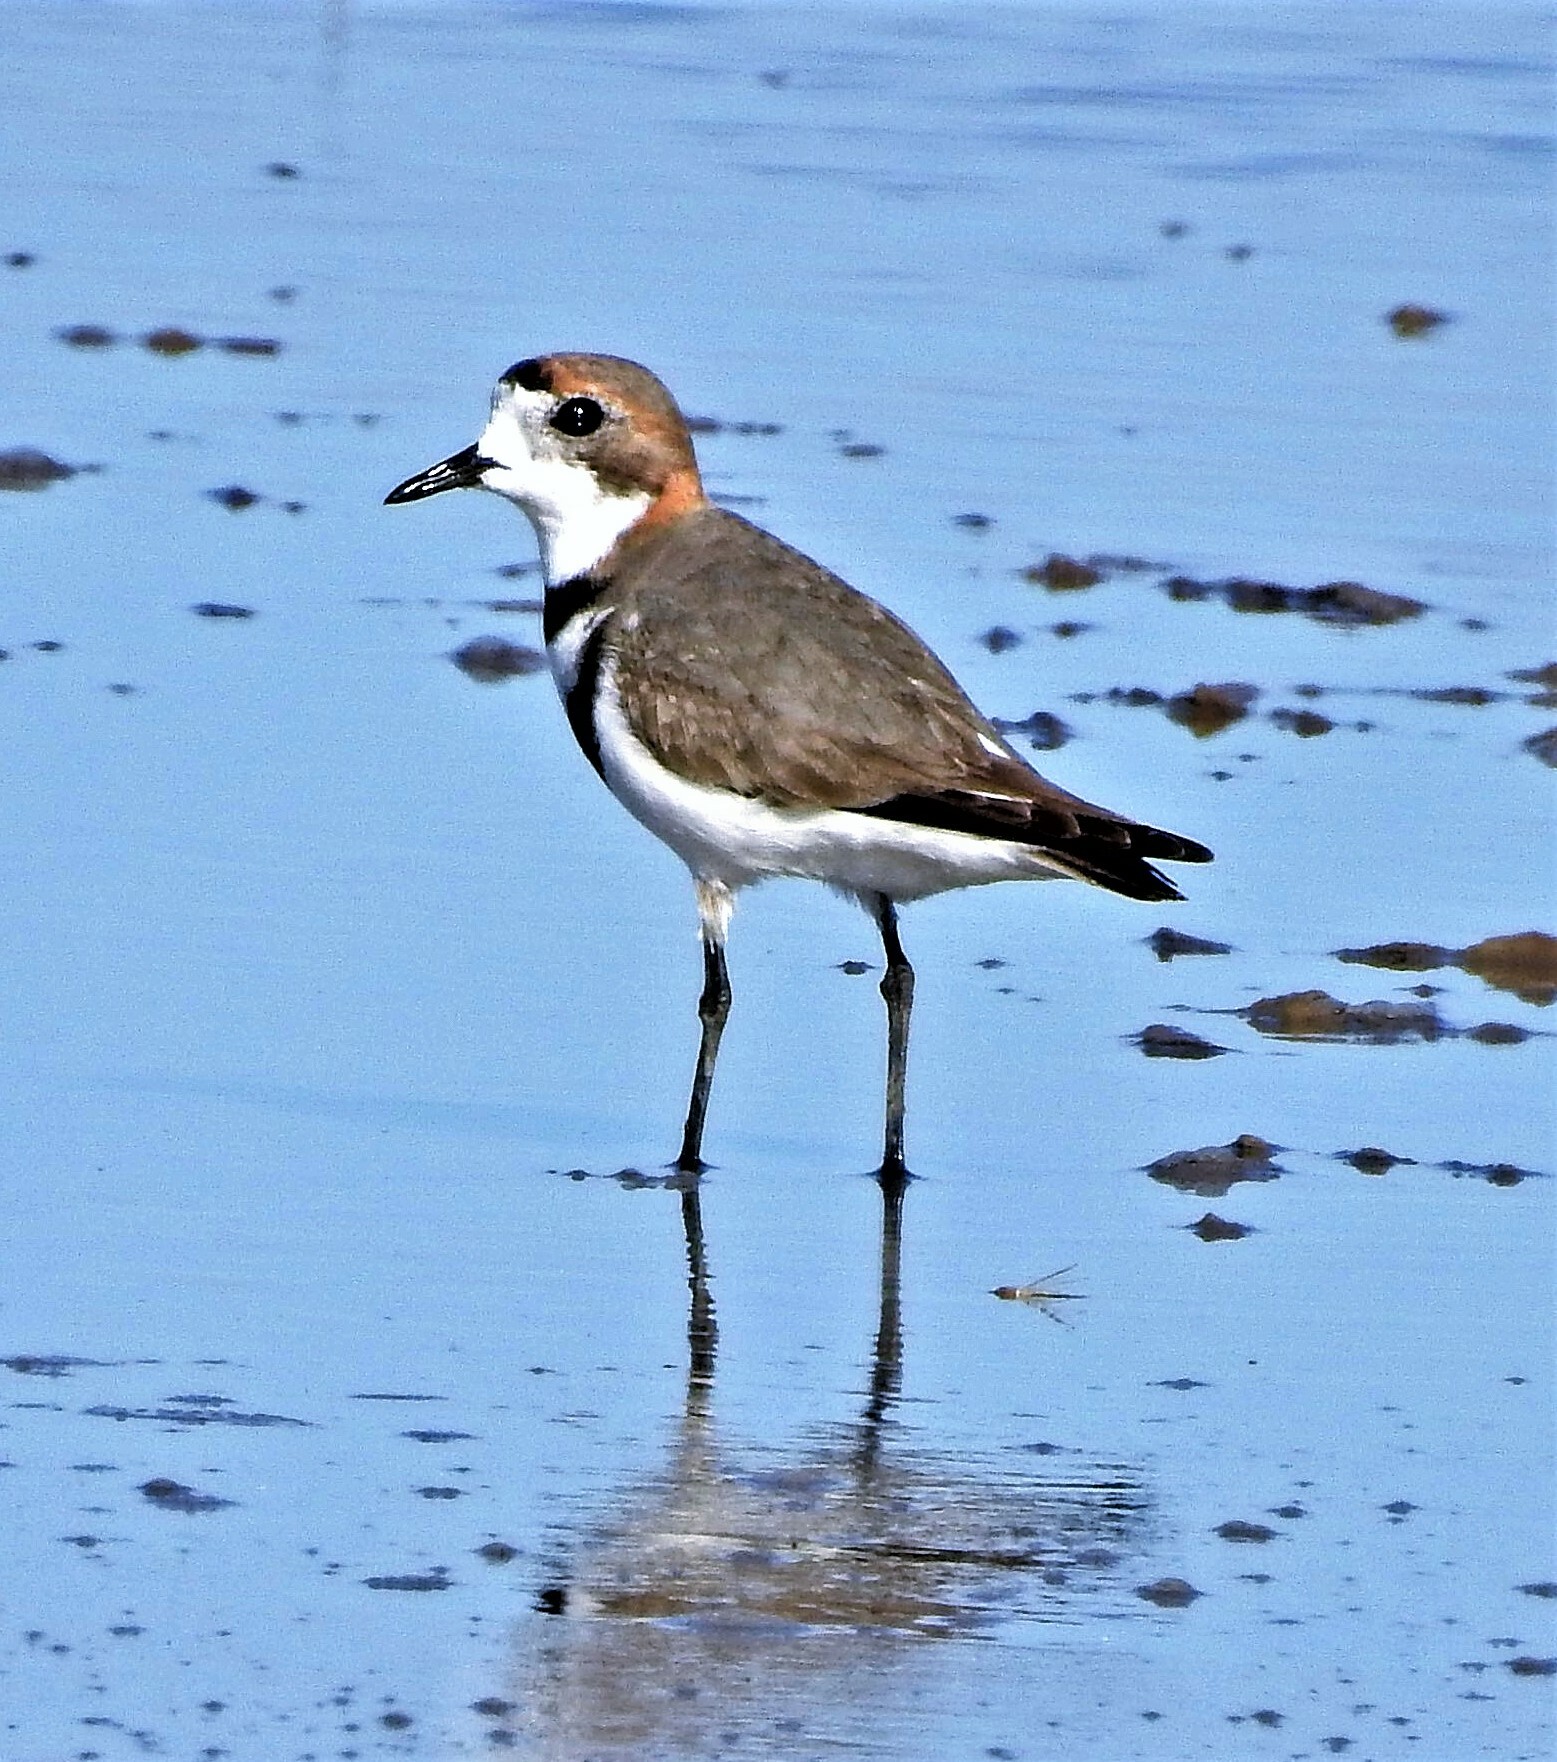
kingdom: Animalia
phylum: Chordata
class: Aves
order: Charadriiformes
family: Charadriidae
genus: Anarhynchus
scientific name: Anarhynchus
